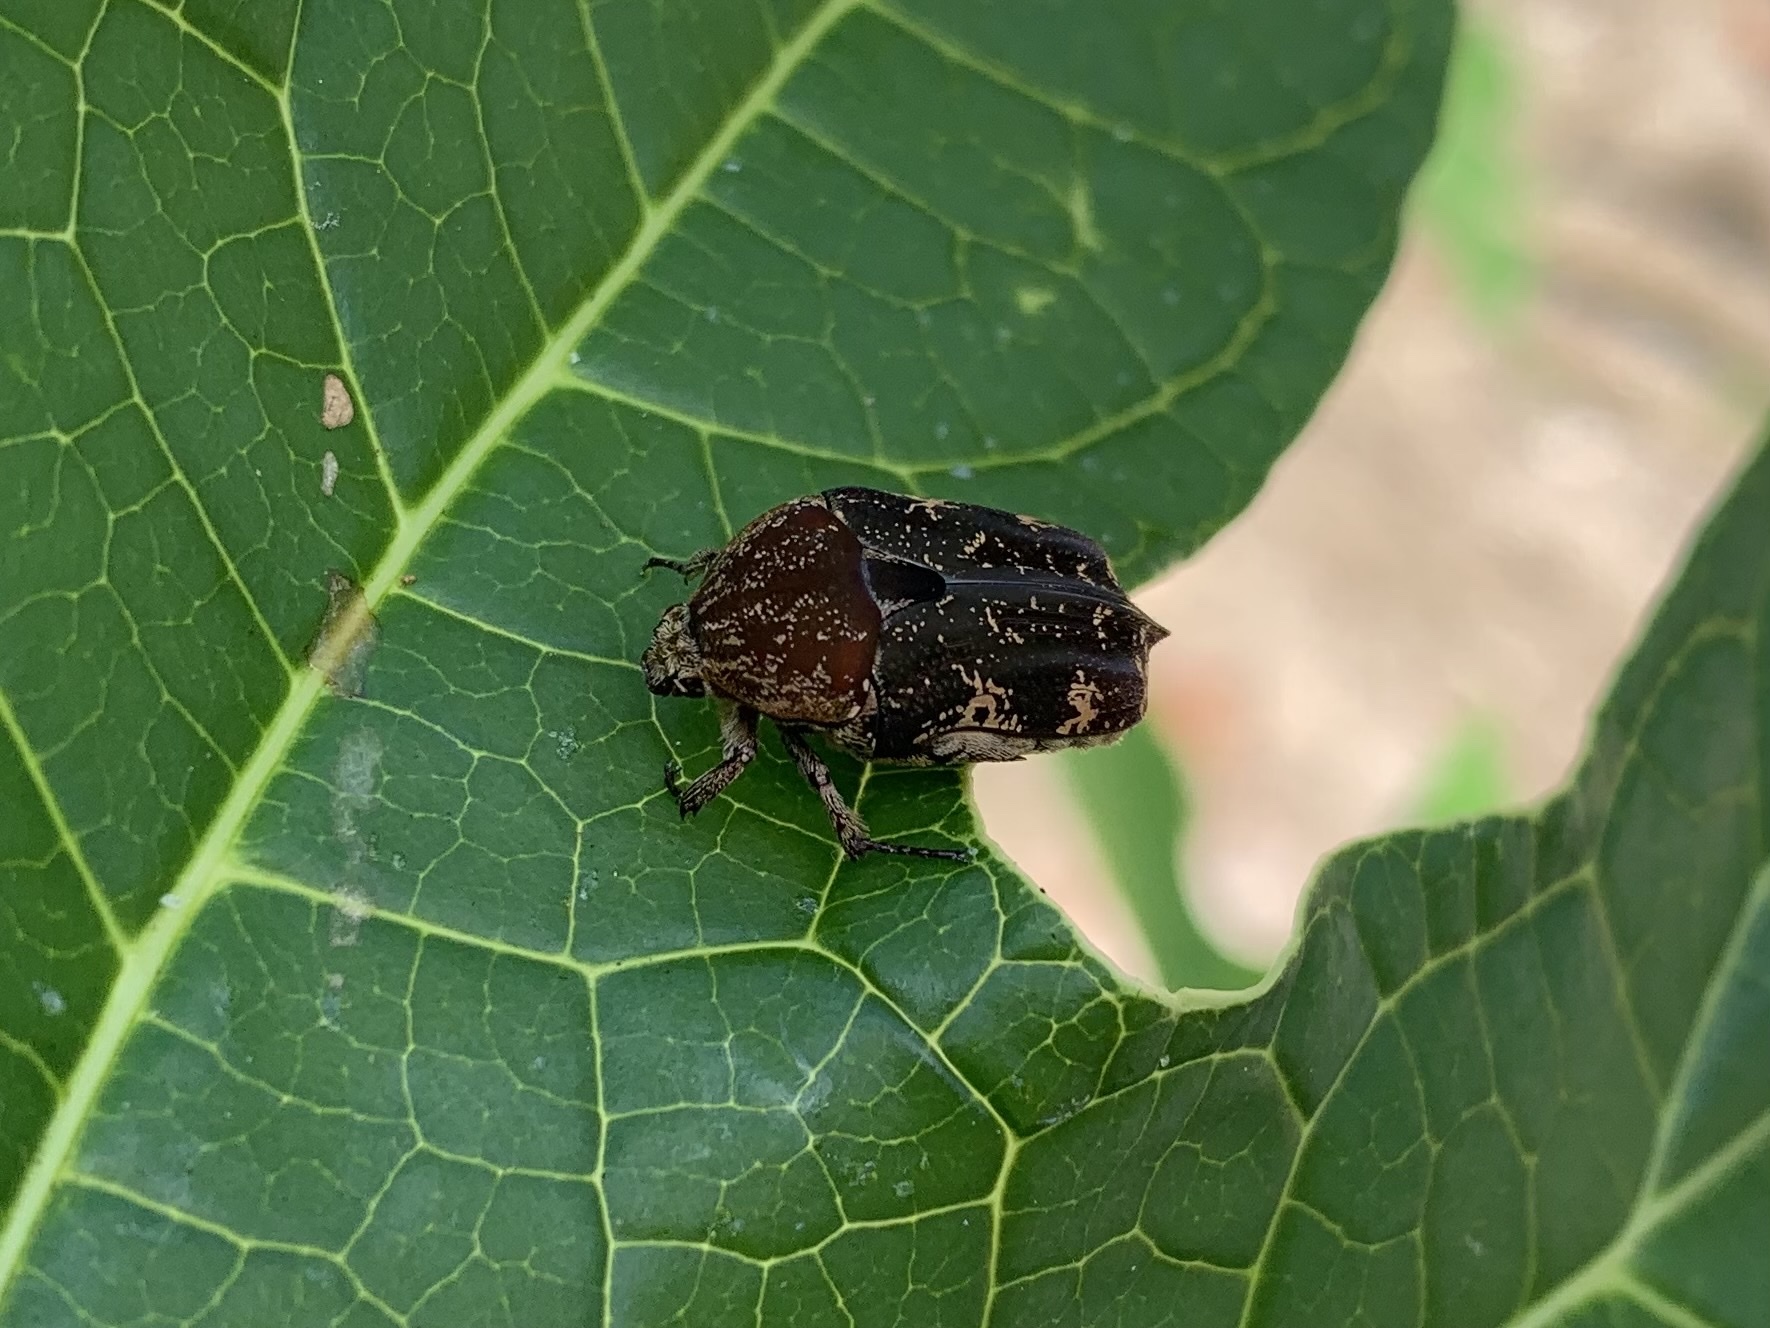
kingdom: Animalia
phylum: Arthropoda
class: Insecta
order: Coleoptera
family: Scarabaeidae
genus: Protaetia
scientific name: Protaetia fusca
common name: Mango flower beetle
